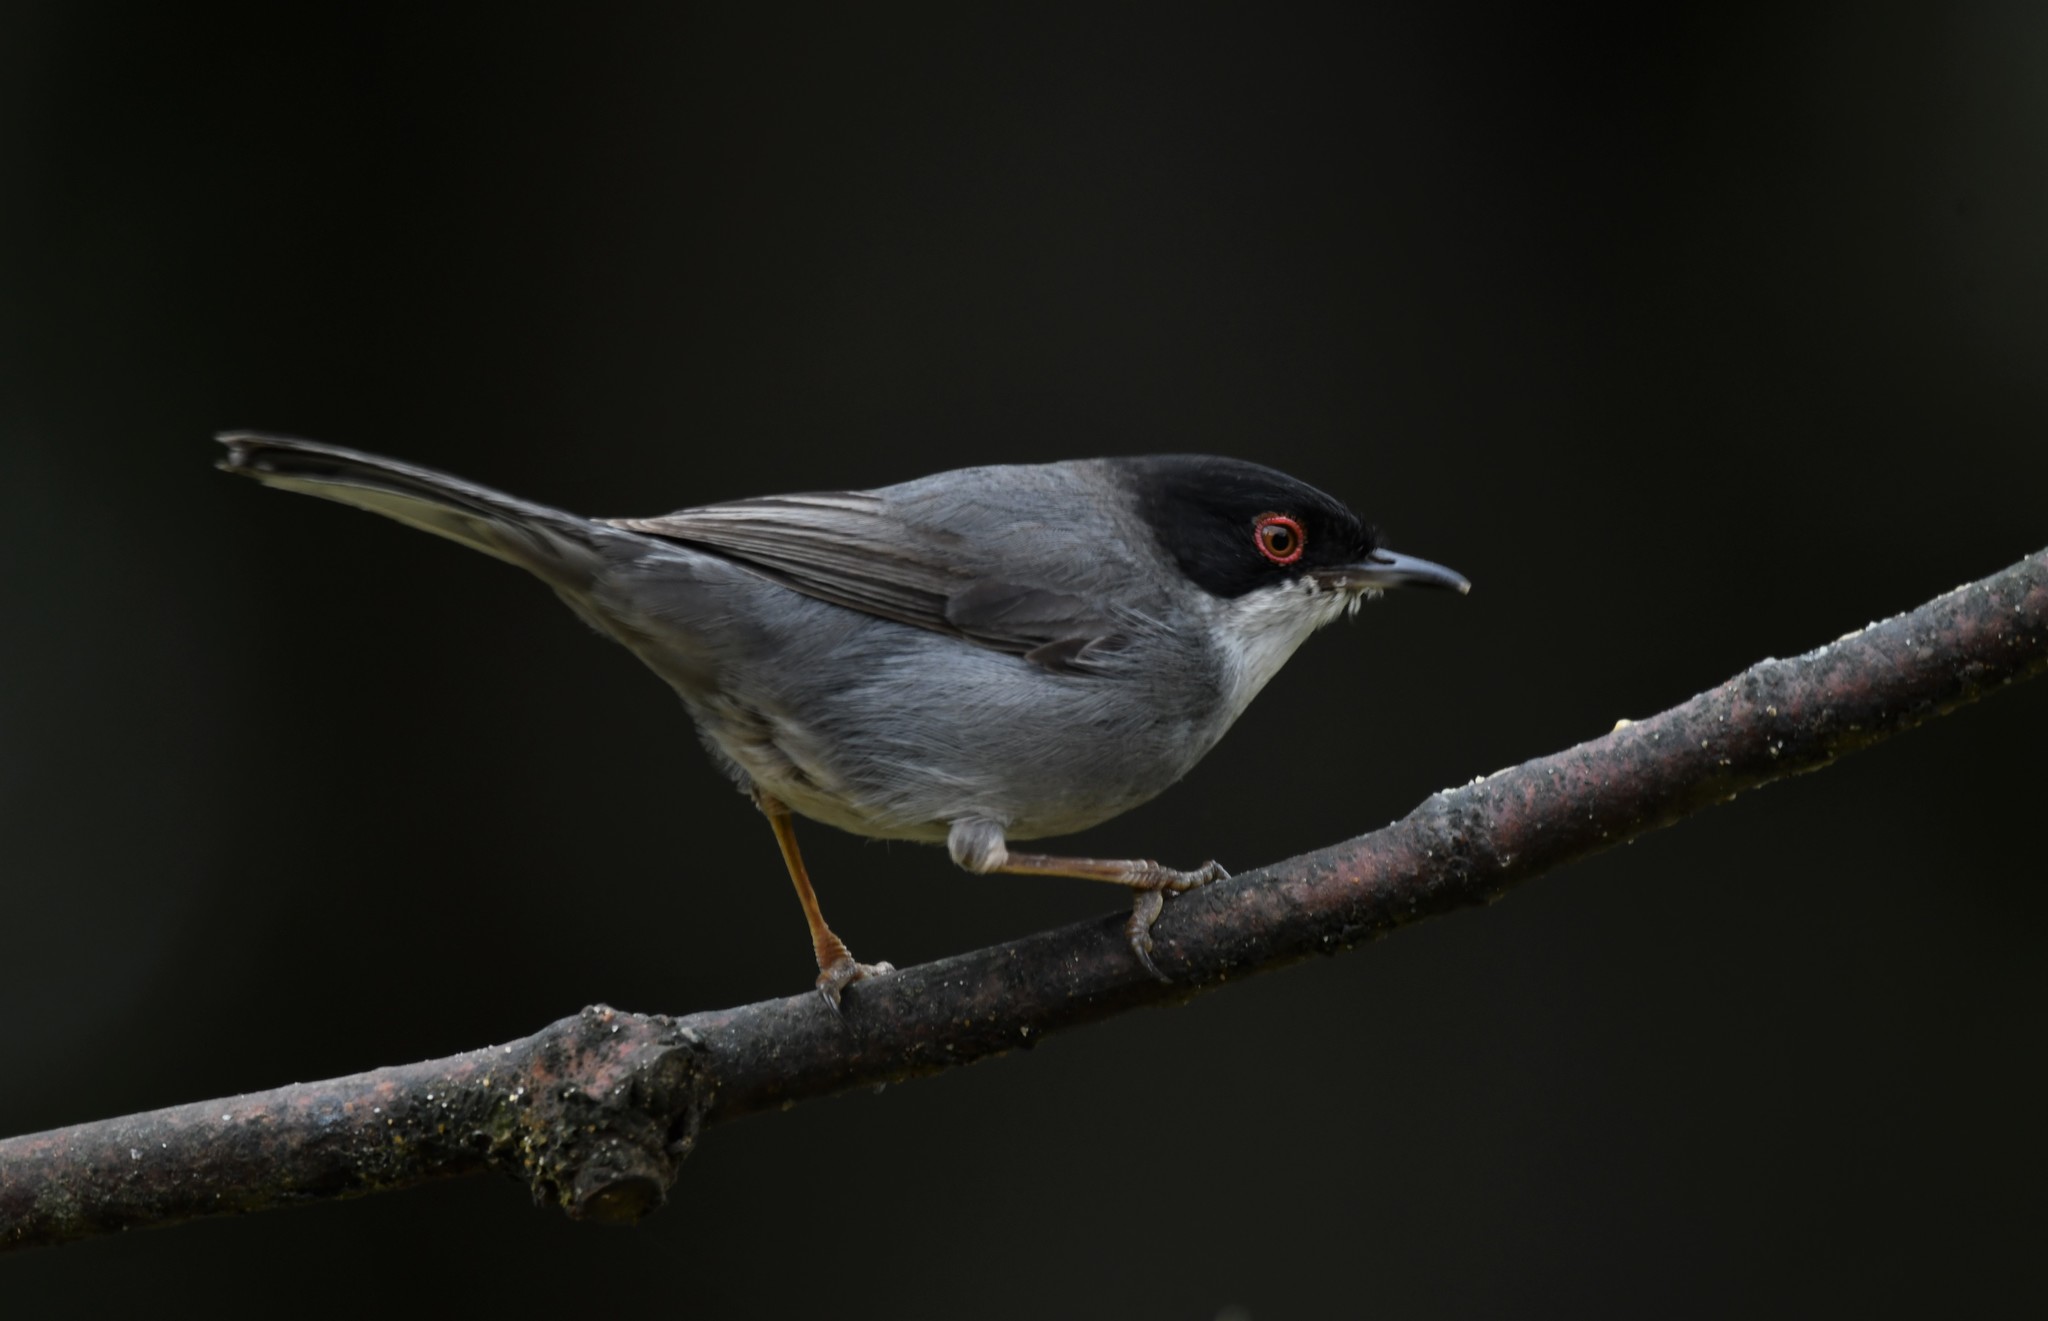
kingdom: Animalia
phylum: Chordata
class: Aves
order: Passeriformes
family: Sylviidae
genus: Curruca
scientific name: Curruca melanocephala
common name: Sardinian warbler
